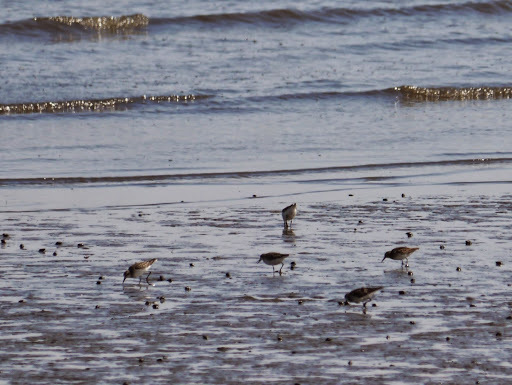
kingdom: Animalia
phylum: Chordata
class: Aves
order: Charadriiformes
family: Scolopacidae
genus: Calidris
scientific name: Calidris
